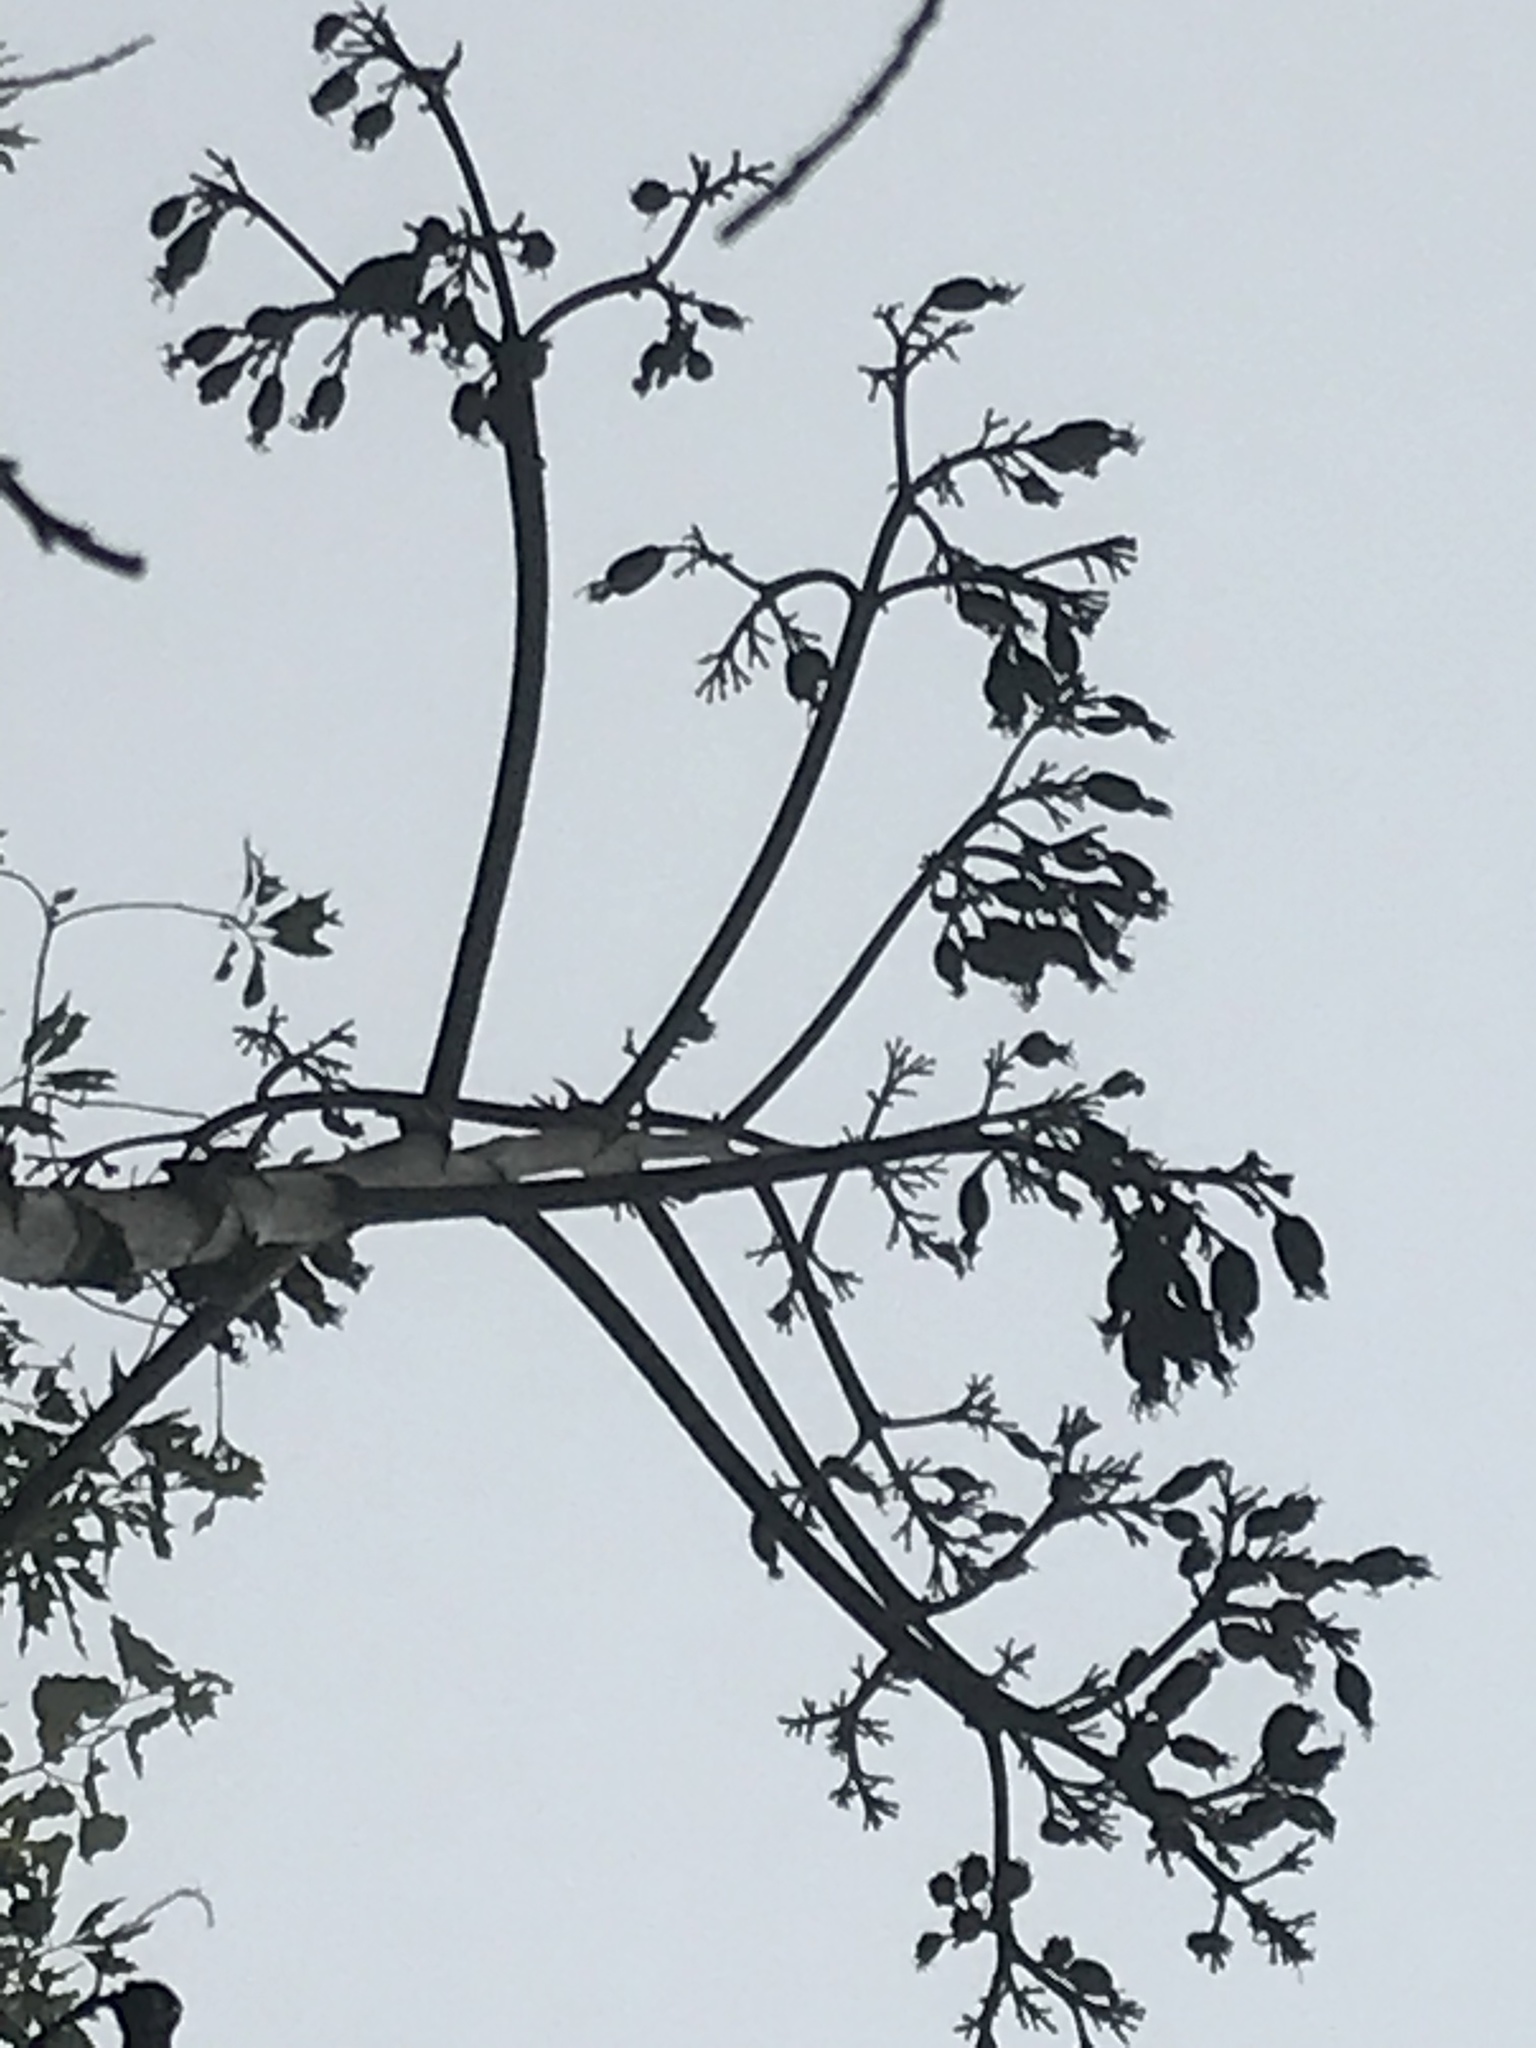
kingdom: Plantae
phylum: Tracheophyta
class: Liliopsida
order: Asparagales
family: Asparagaceae
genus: Agave
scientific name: Agave salmiana
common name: Pulque agave
